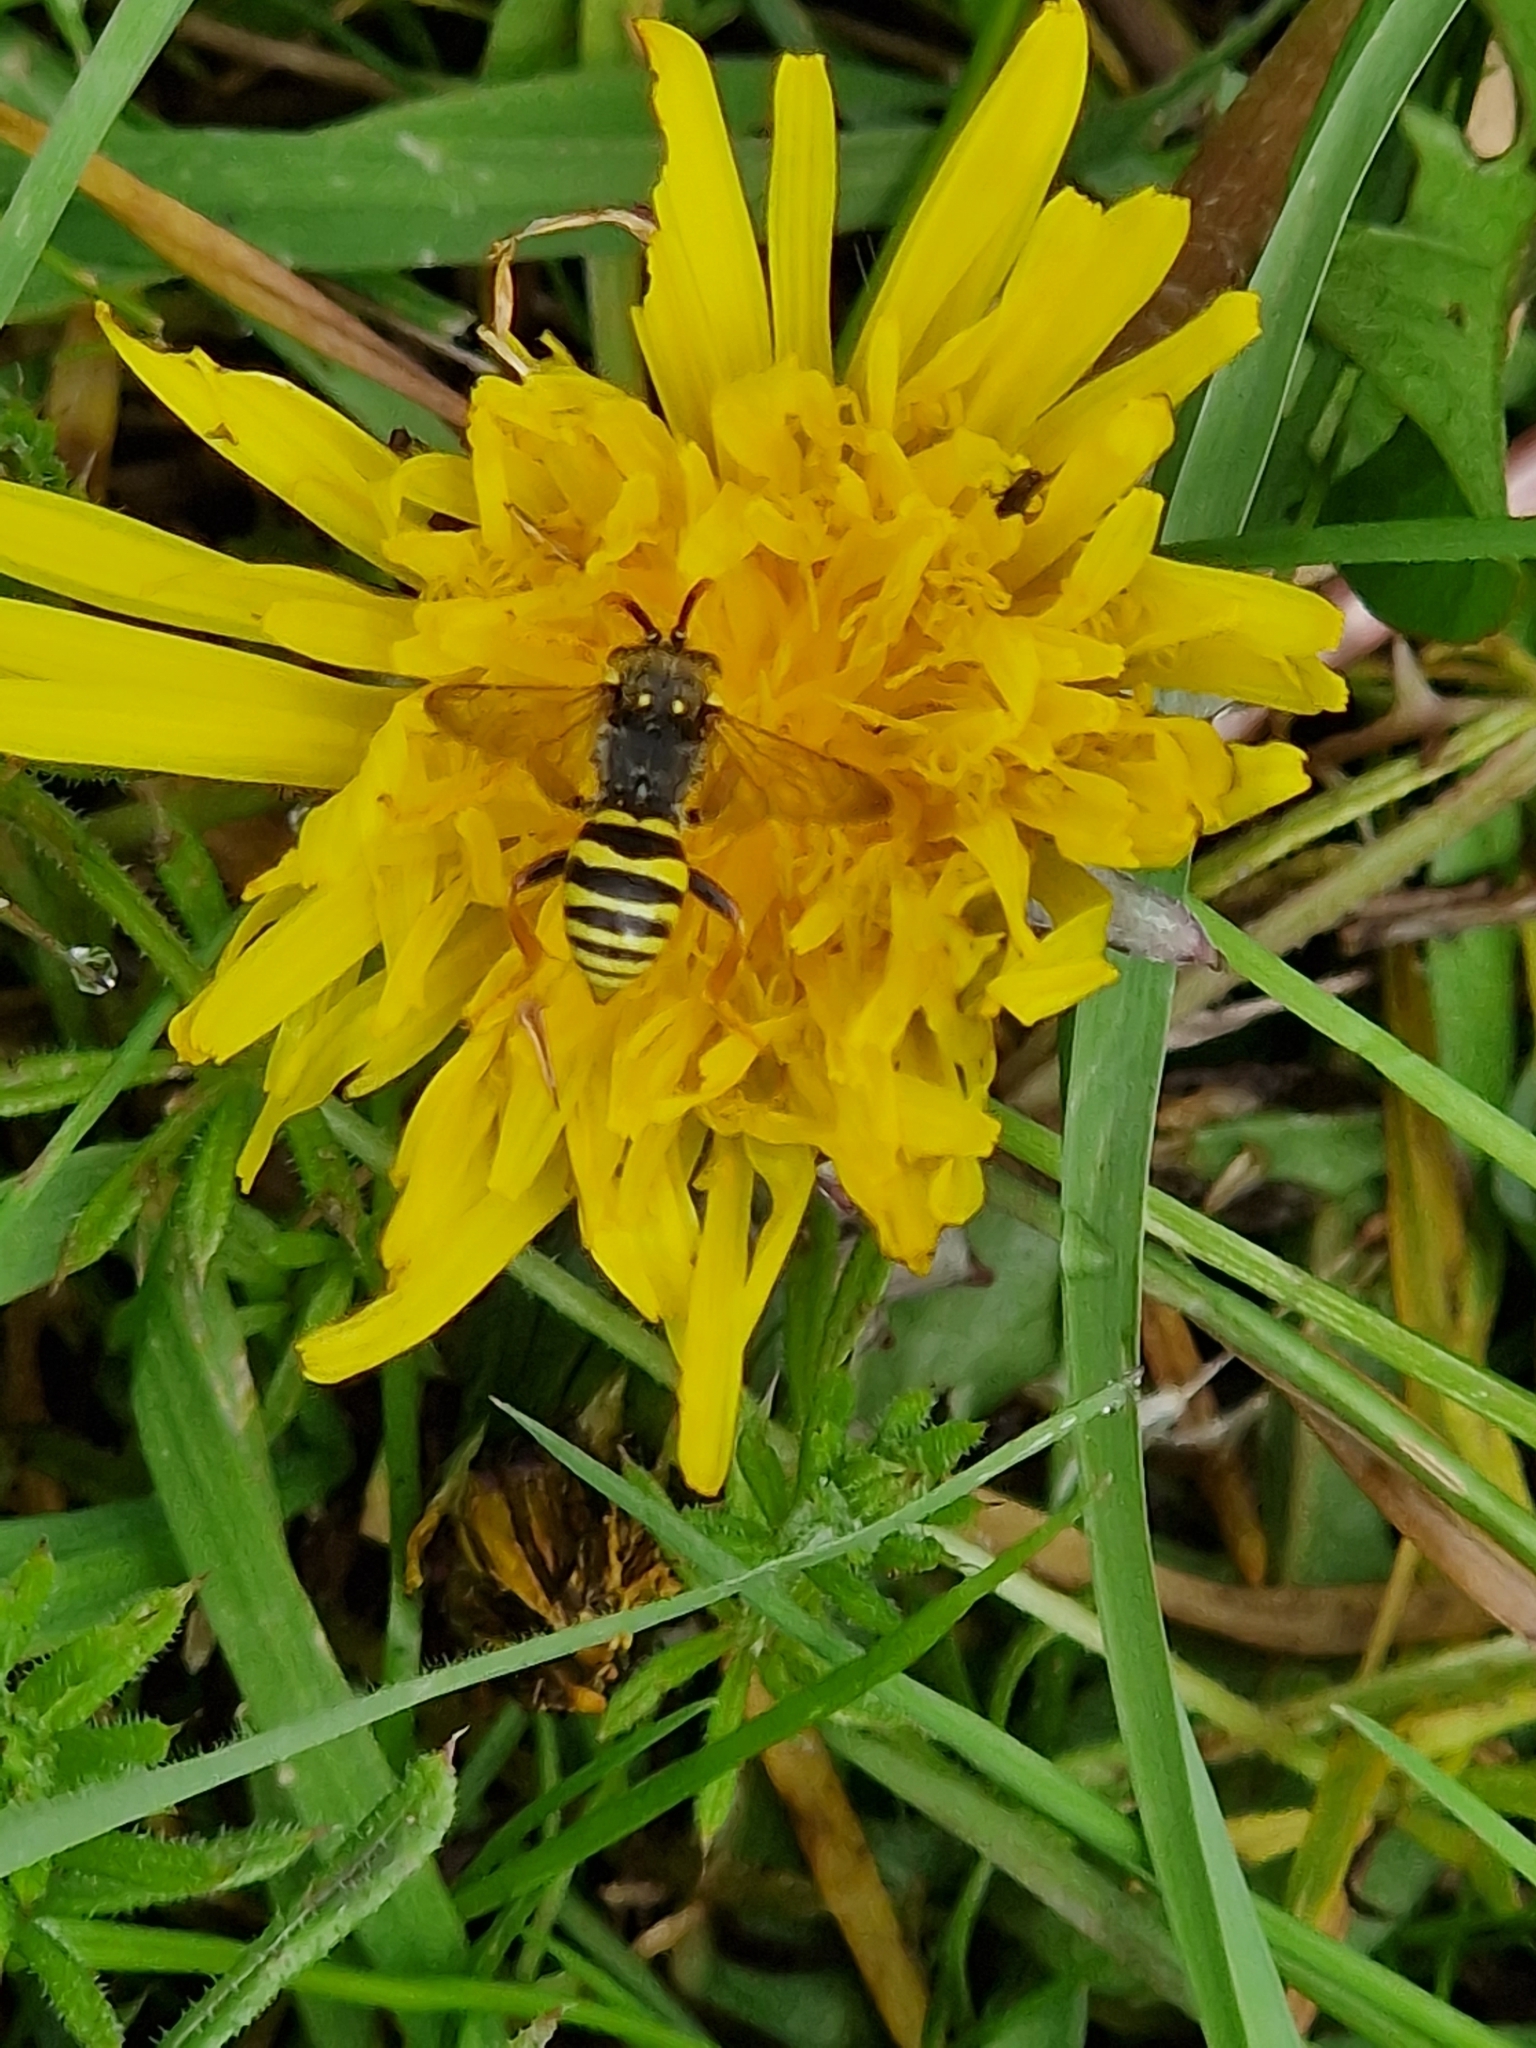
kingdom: Animalia
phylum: Arthropoda
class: Insecta
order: Hymenoptera
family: Apidae
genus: Nomada
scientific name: Nomada goodeniana
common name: Gooden's nomad bee
